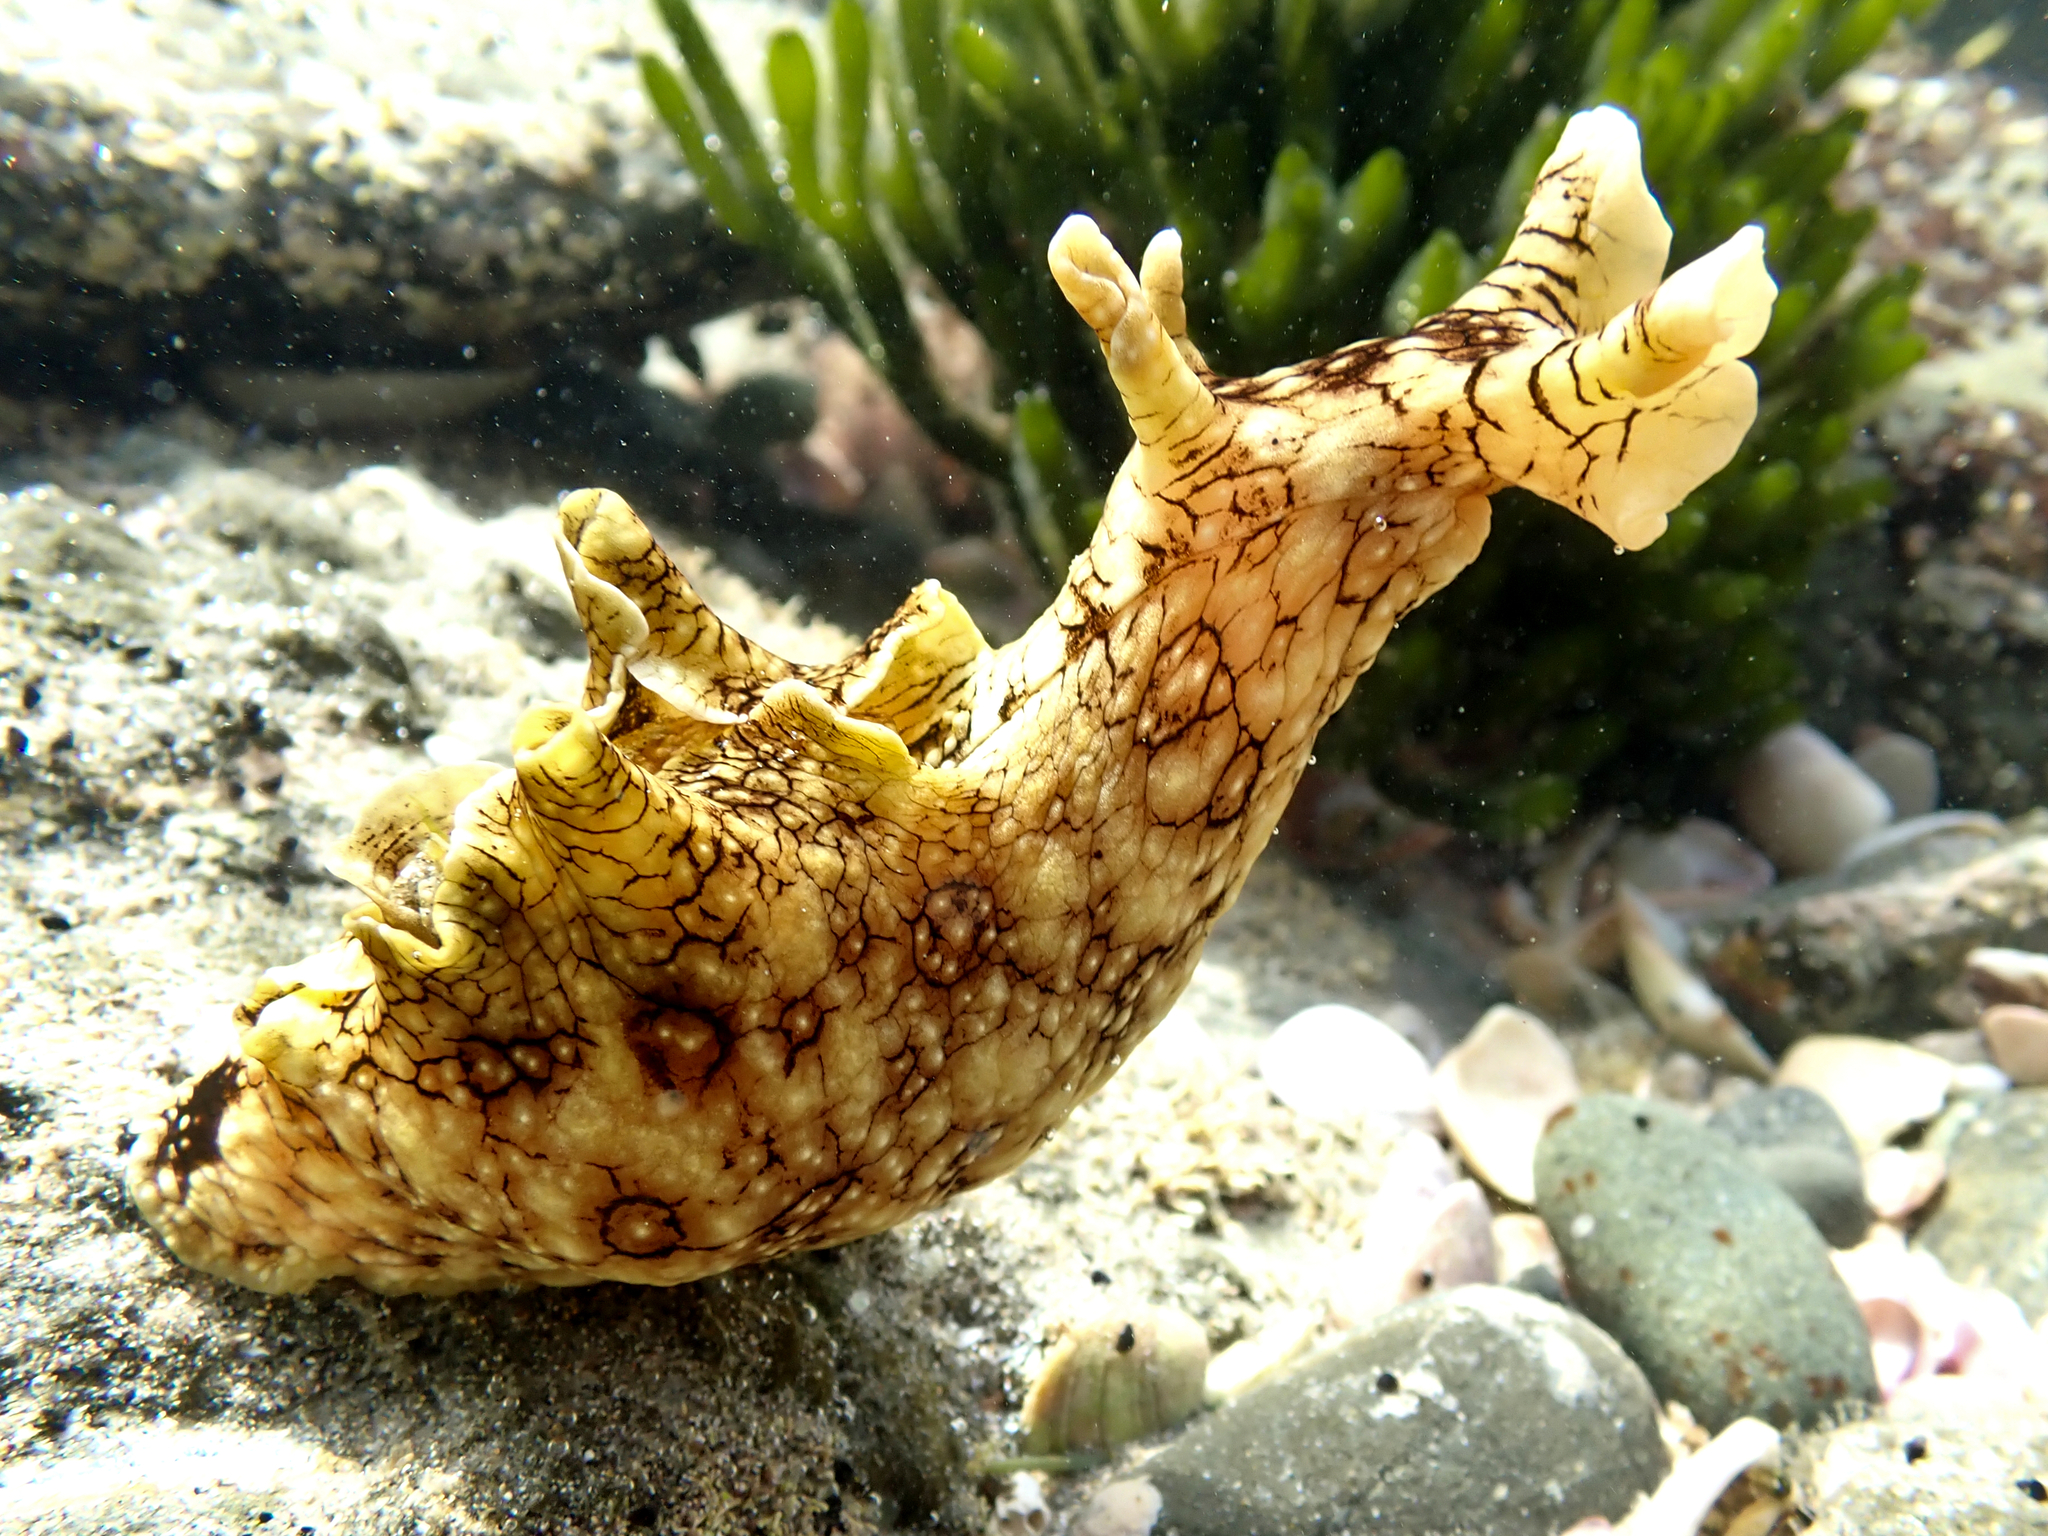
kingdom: Animalia
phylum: Mollusca
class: Gastropoda
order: Aplysiida
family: Aplysiidae
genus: Aplysia
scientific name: Aplysia argus
